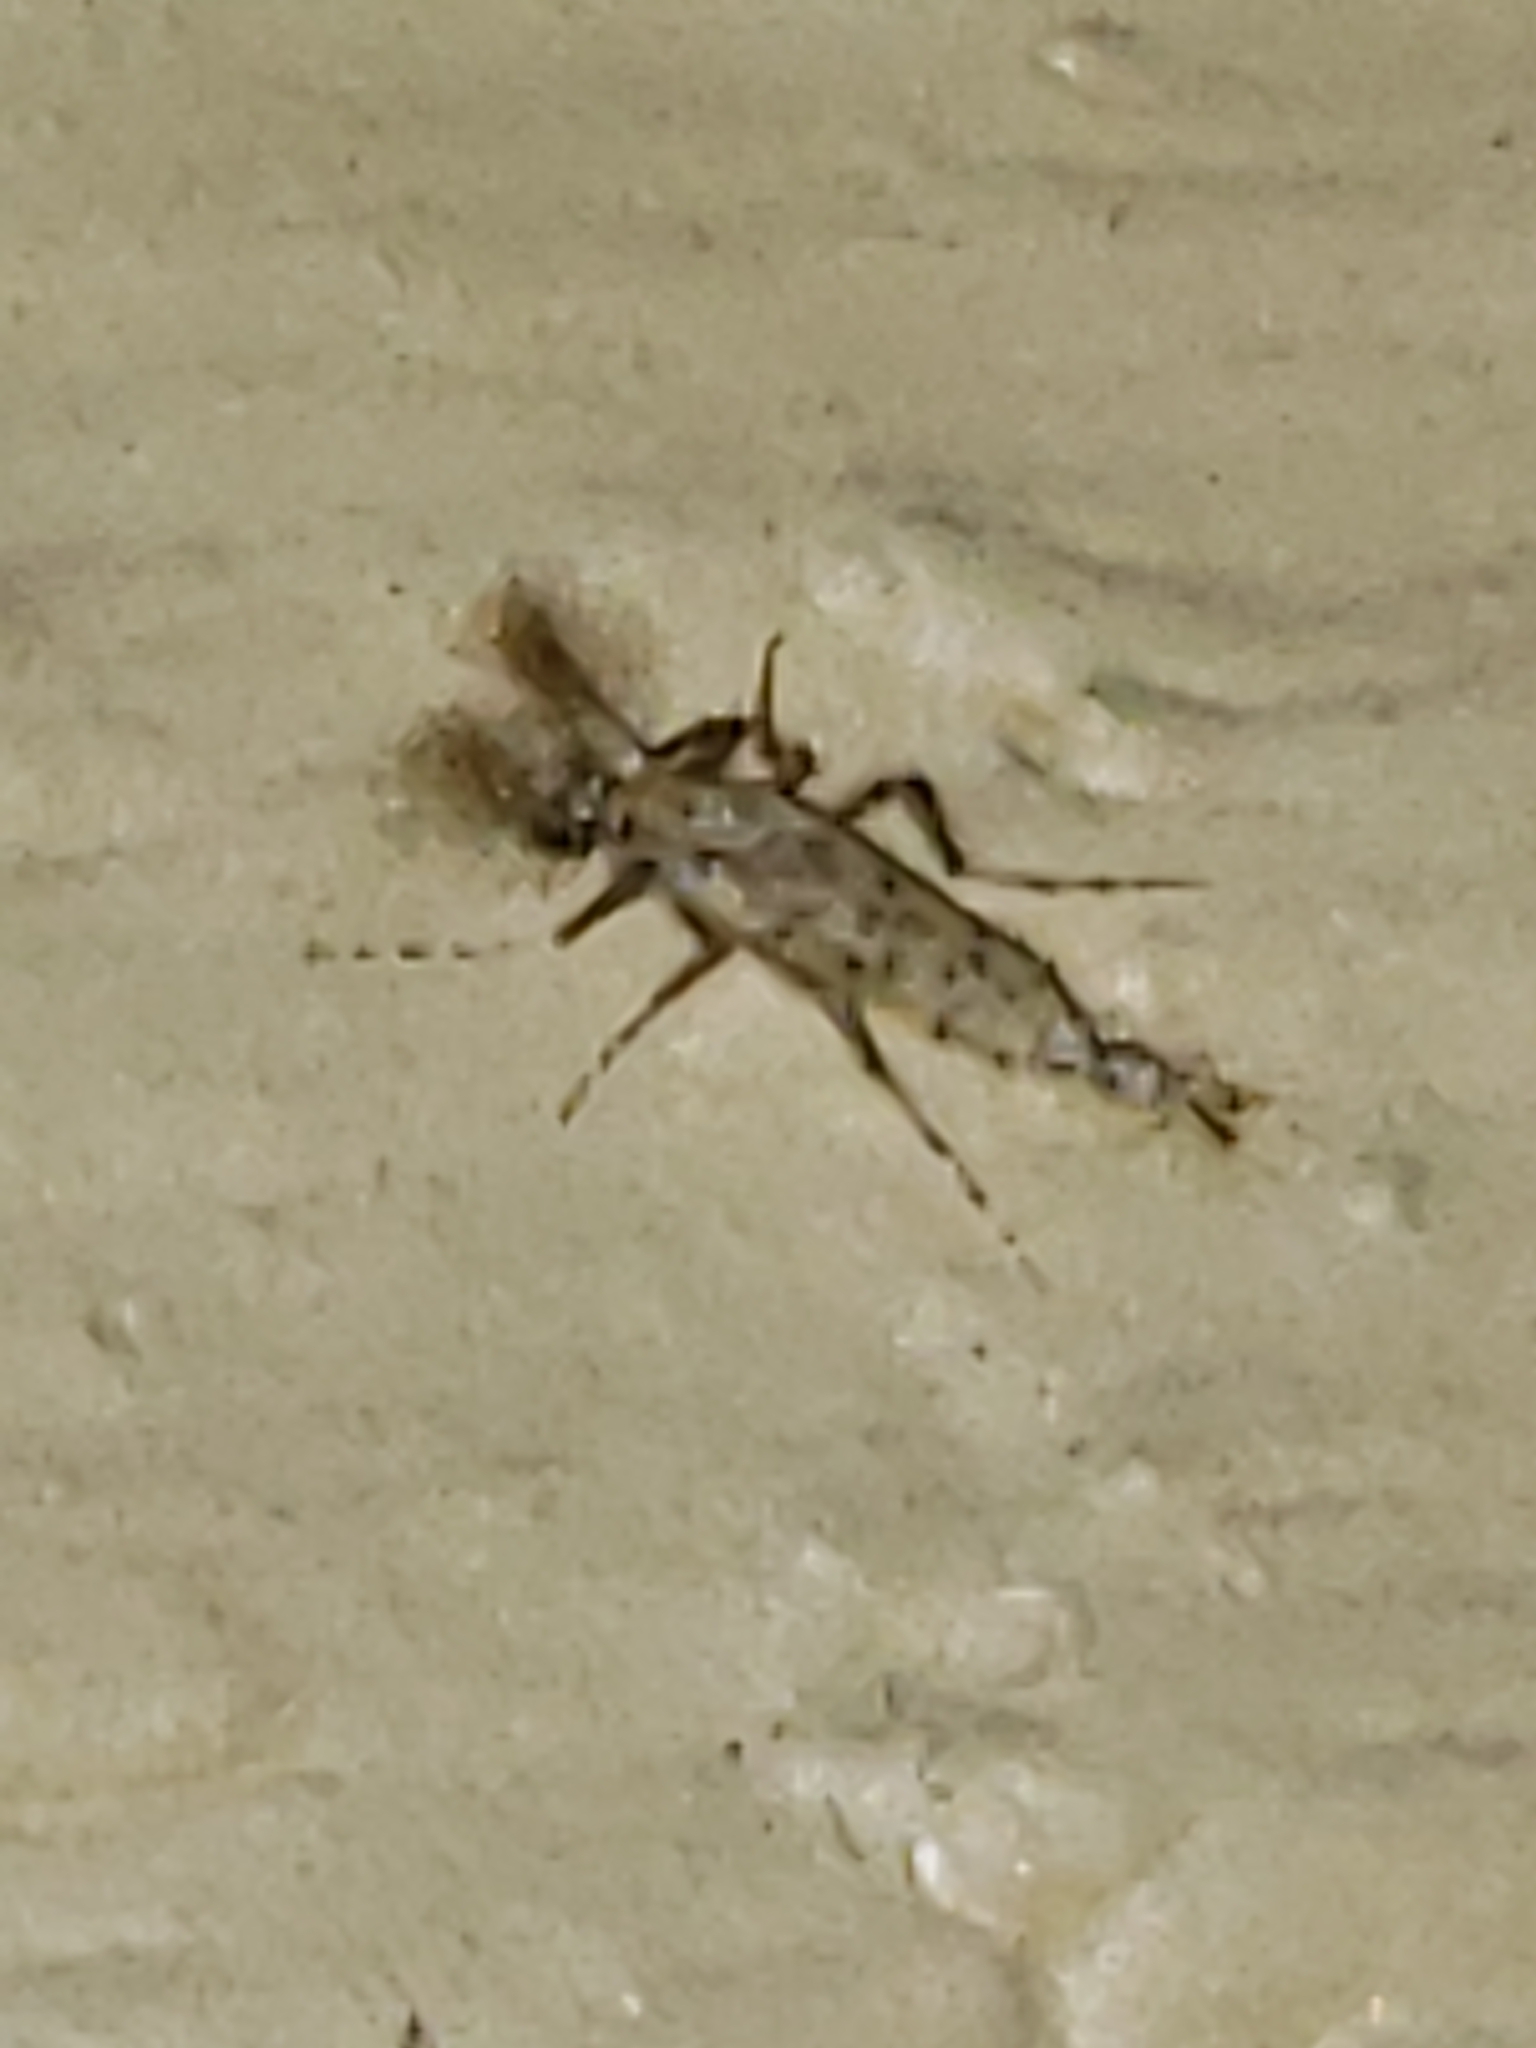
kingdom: Animalia
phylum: Arthropoda
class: Insecta
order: Diptera
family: Chaoboridae
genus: Chaoborus
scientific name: Chaoborus punctipennis
